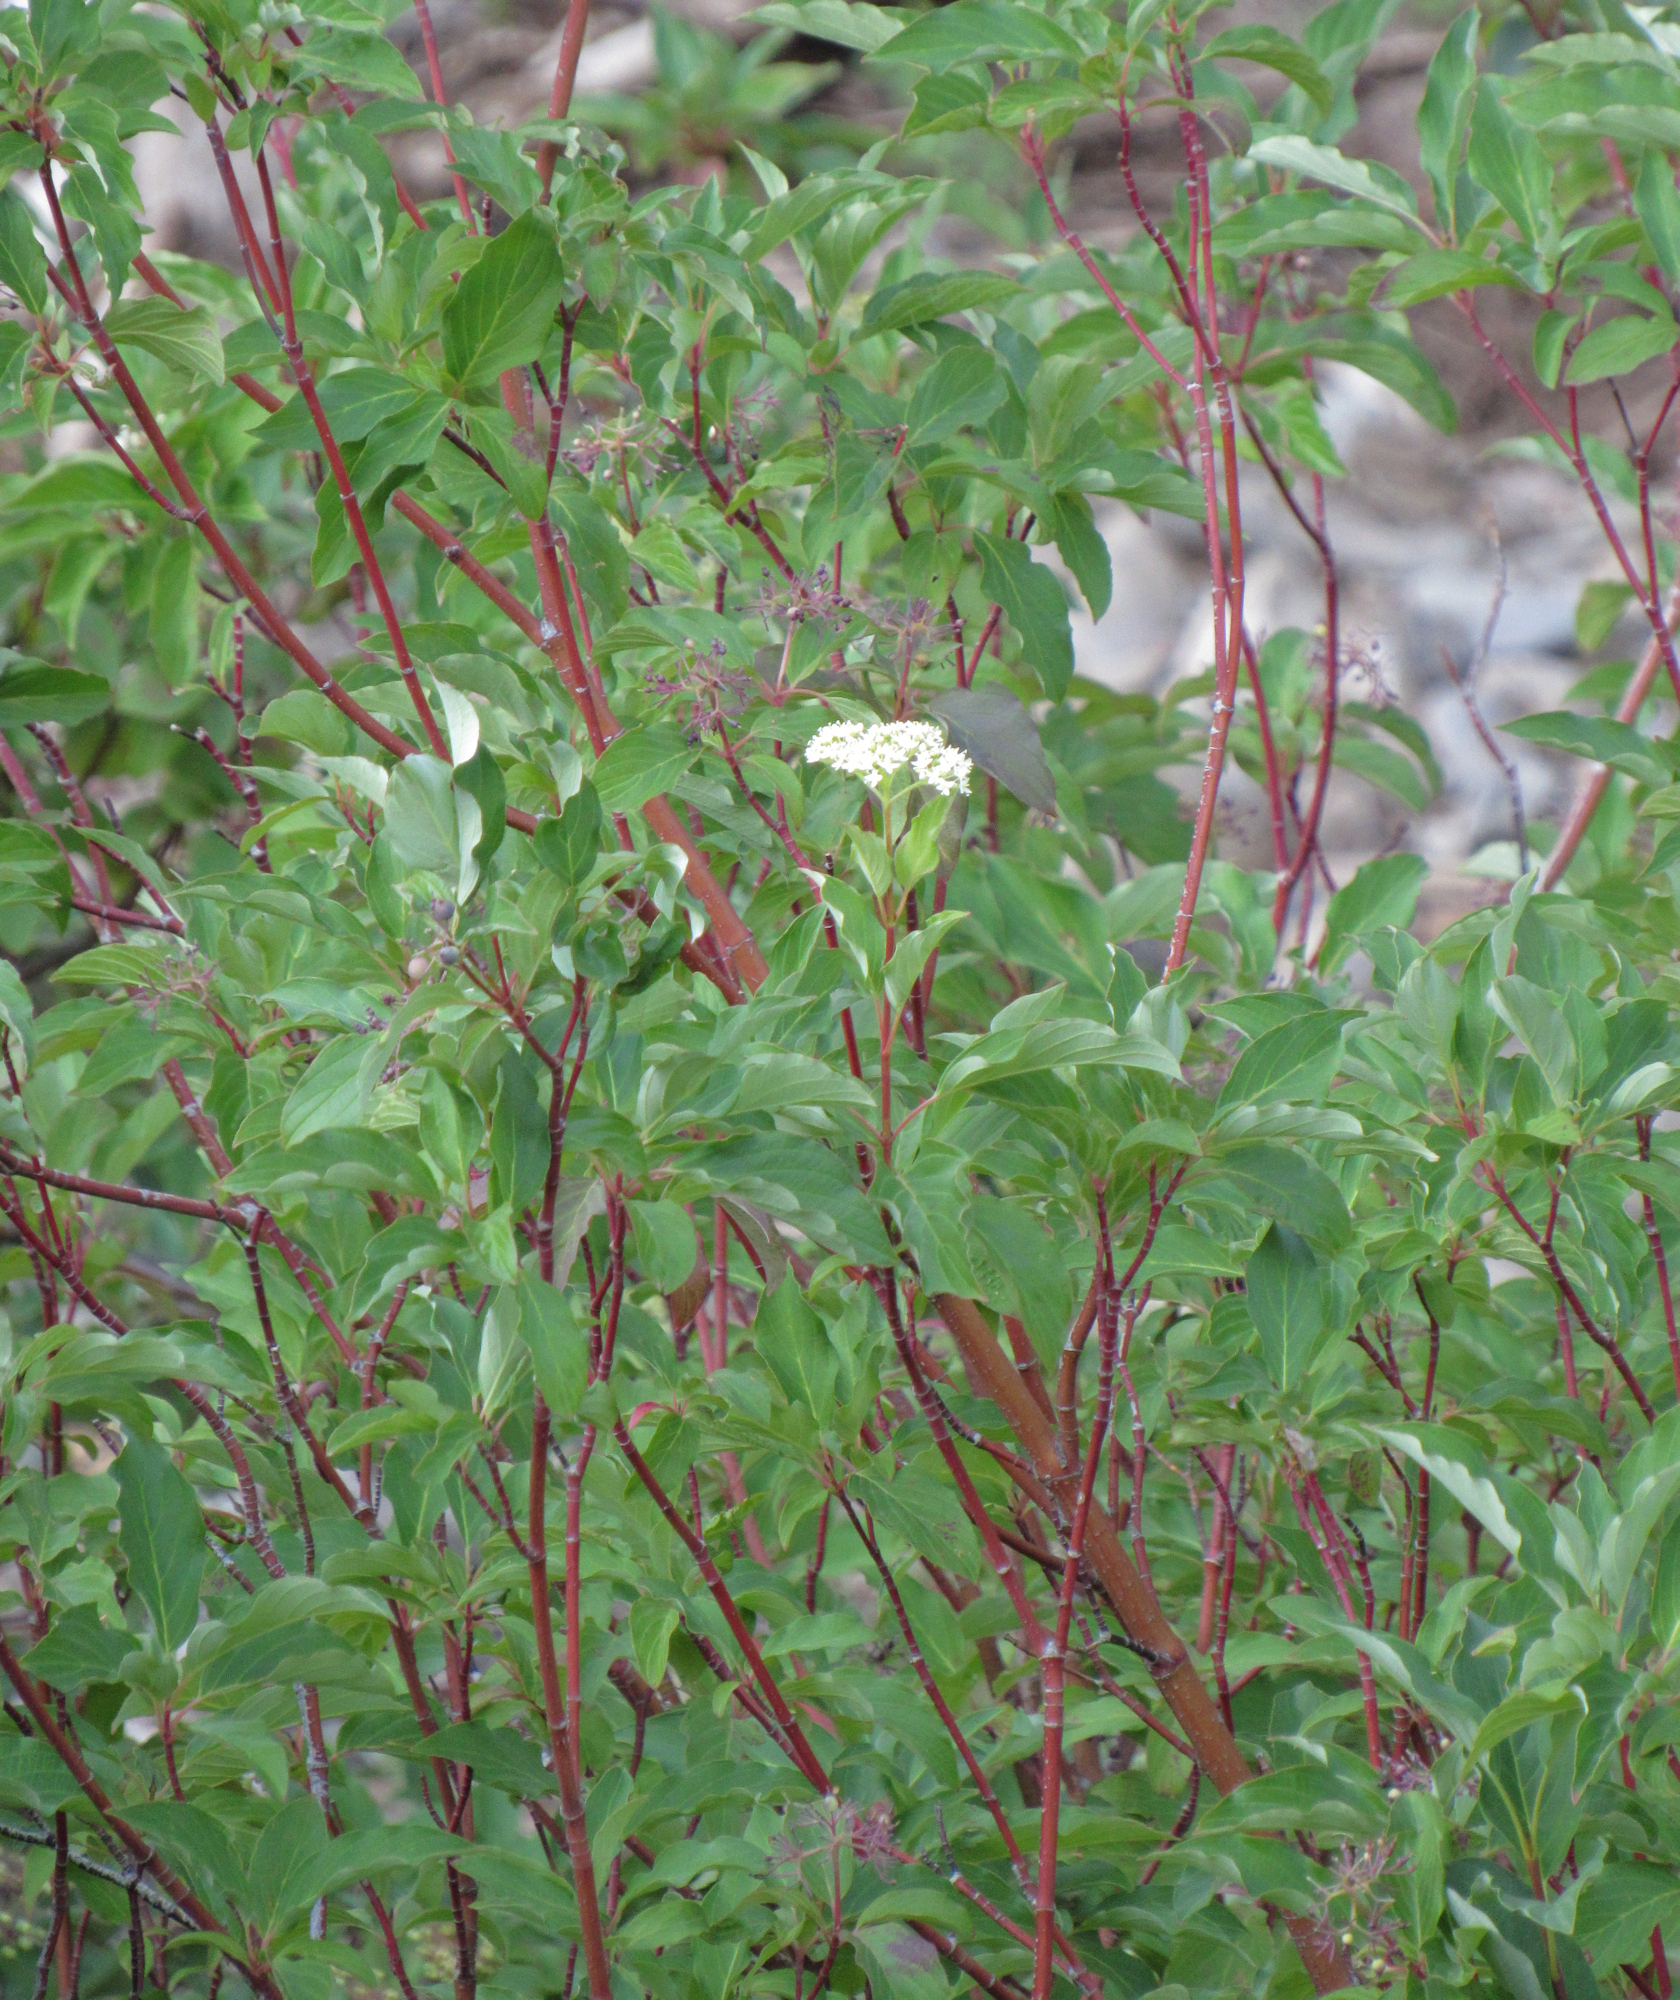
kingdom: Plantae
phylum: Tracheophyta
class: Magnoliopsida
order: Cornales
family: Cornaceae
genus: Cornus
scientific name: Cornus sericea
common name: Red-osier dogwood
